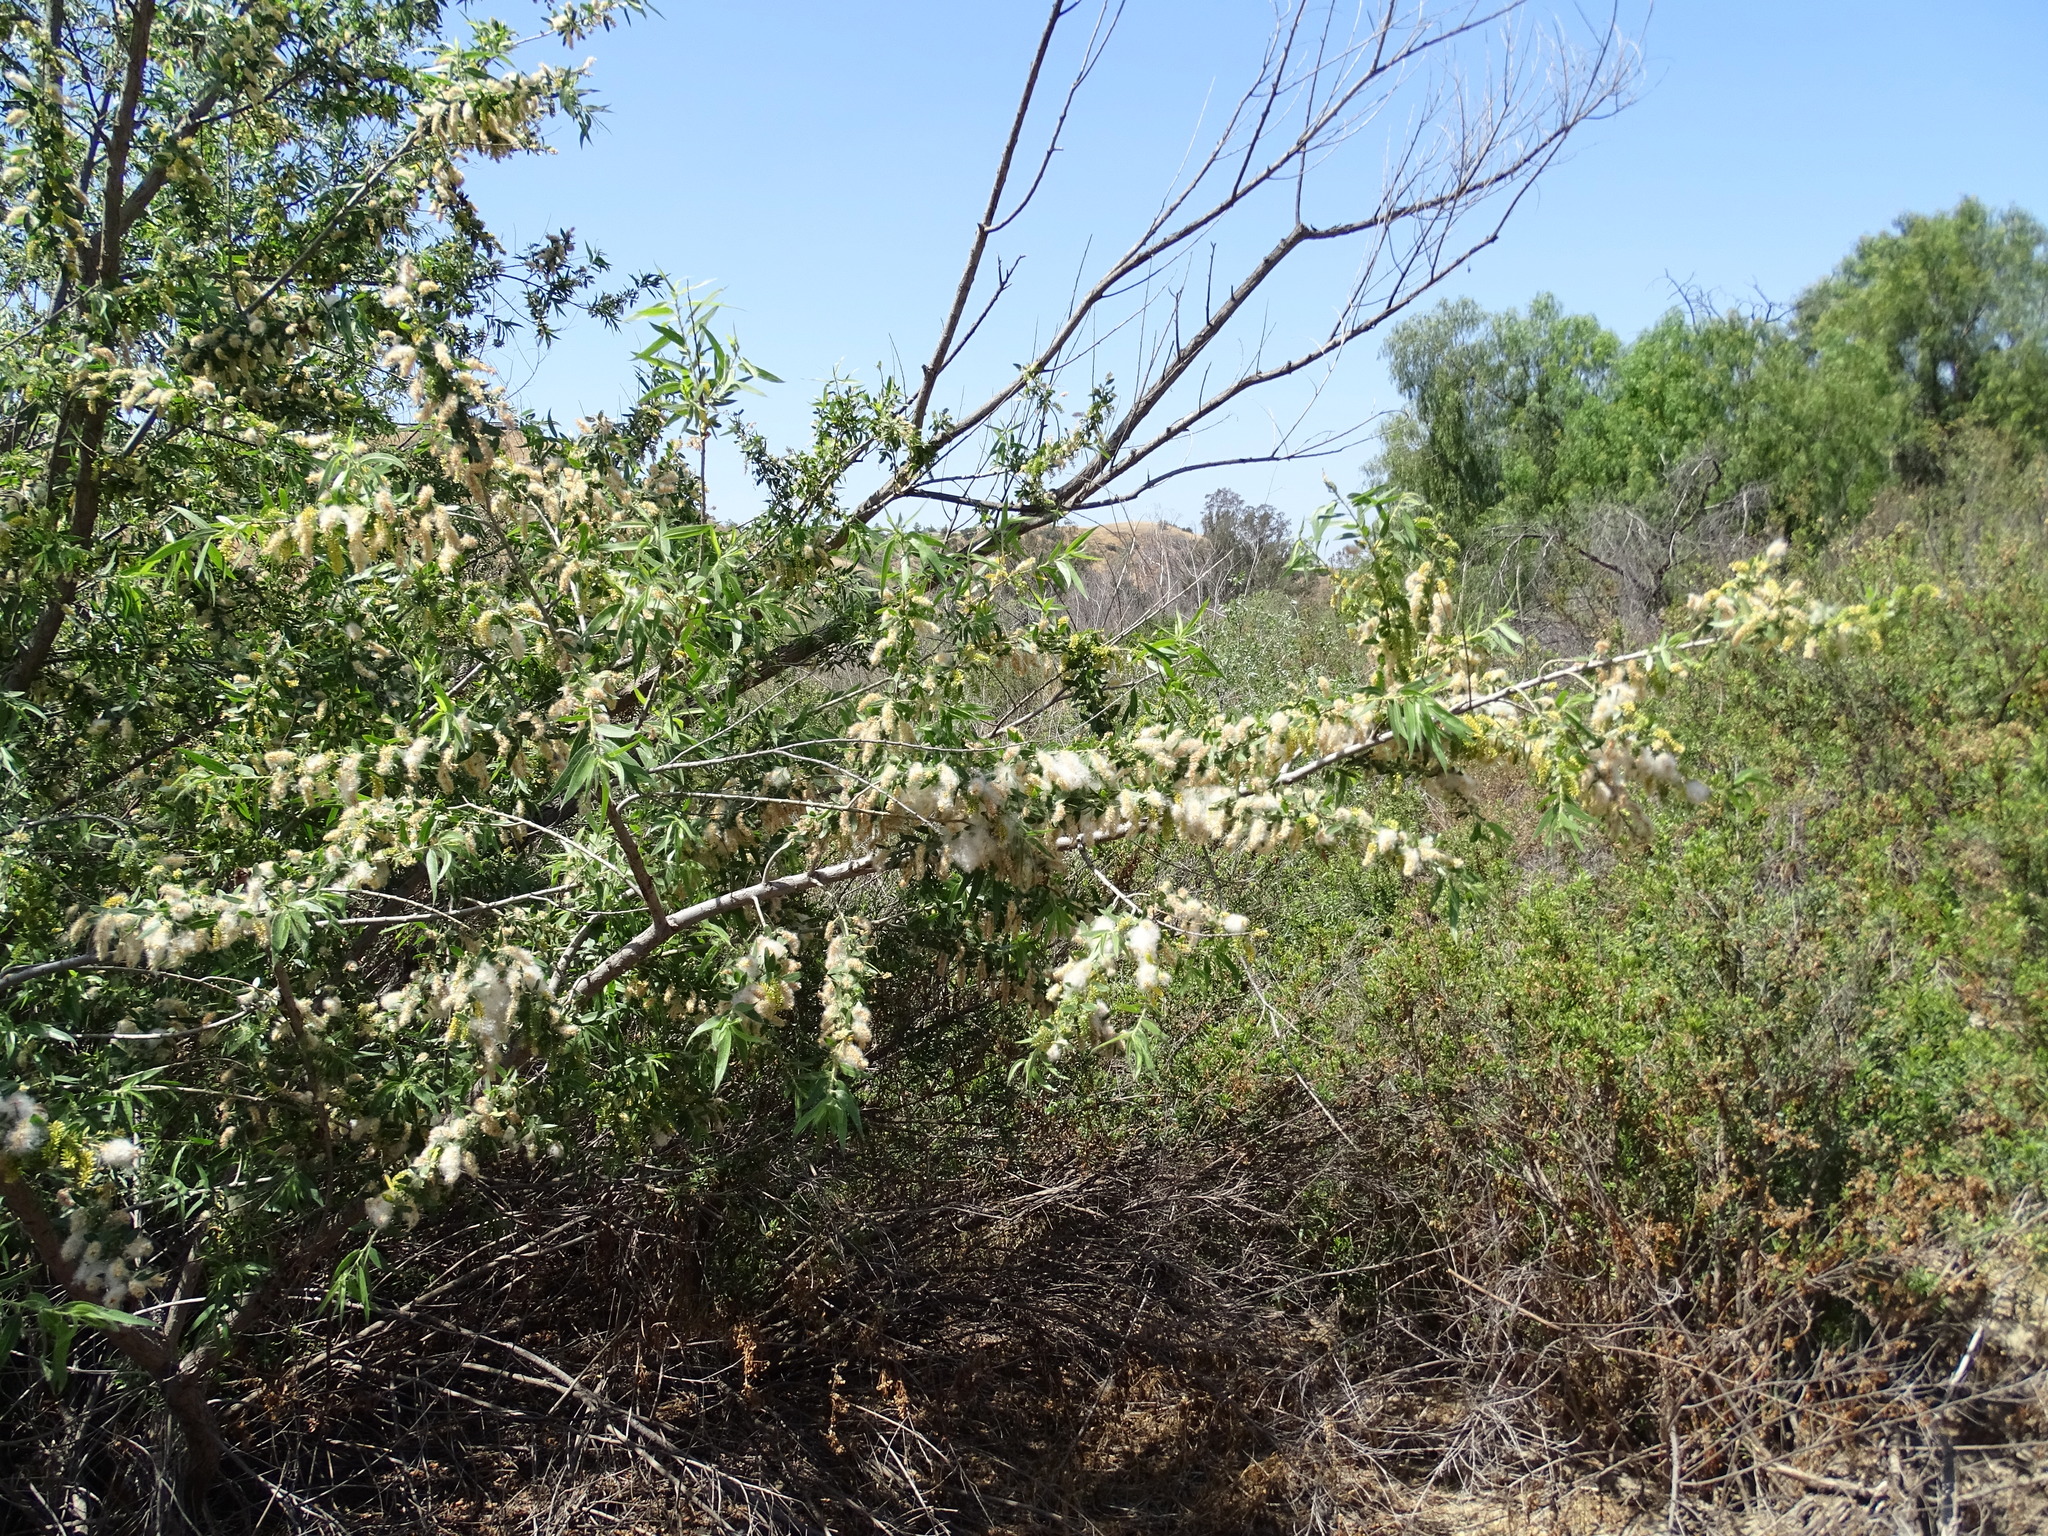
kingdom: Plantae
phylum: Tracheophyta
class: Magnoliopsida
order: Malpighiales
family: Salicaceae
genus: Salix
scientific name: Salix gooddingii
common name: Goodding's willow
